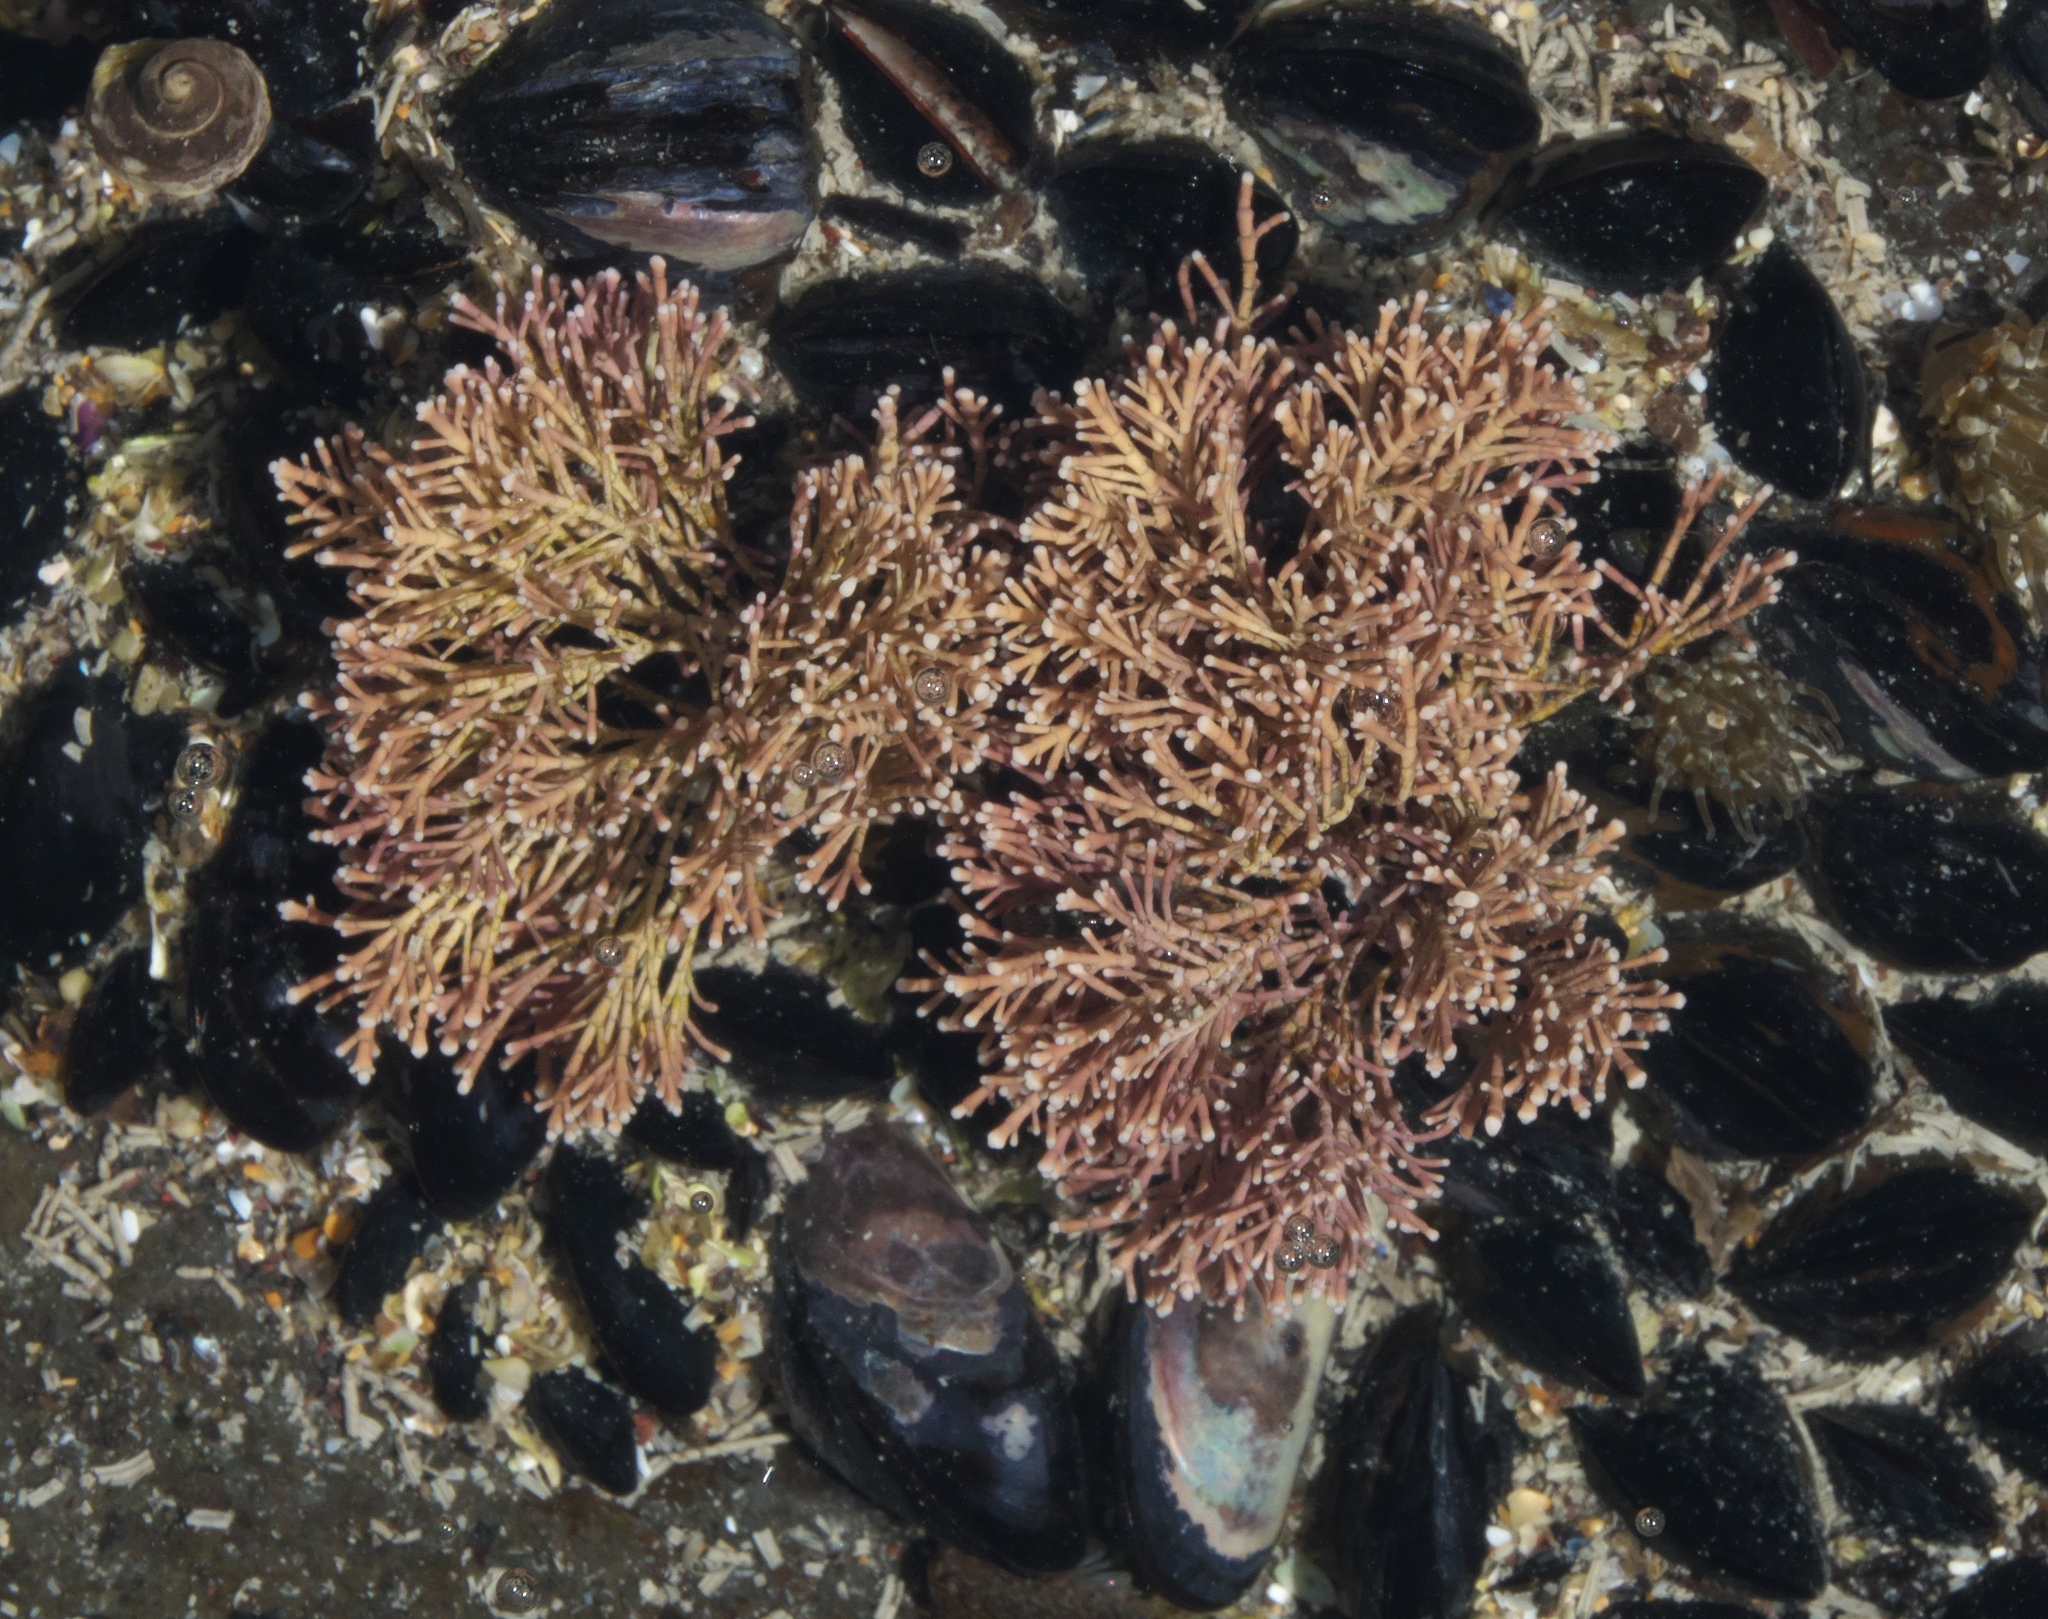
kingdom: Plantae
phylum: Rhodophyta
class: Florideophyceae
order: Corallinales
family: Corallinaceae
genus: Corallina
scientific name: Corallina officinalis
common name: Coral weed
